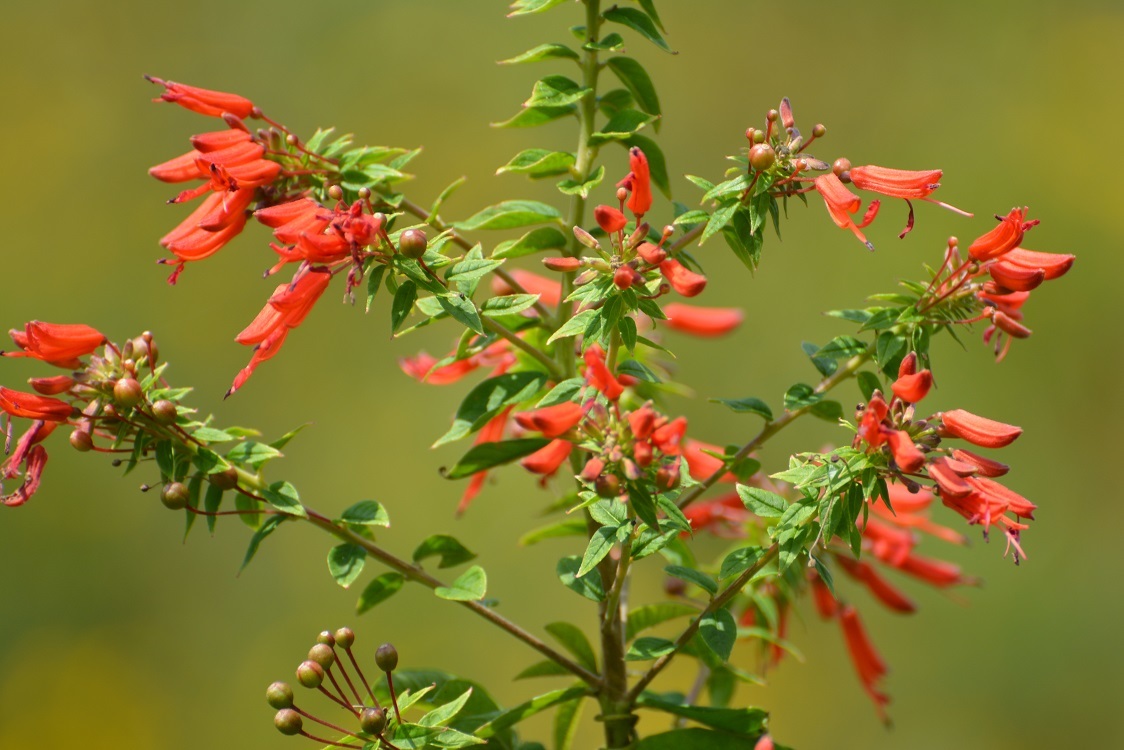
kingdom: Plantae
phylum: Tracheophyta
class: Magnoliopsida
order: Myrtales
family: Onagraceae
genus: Lopezia
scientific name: Lopezia grandiflora
